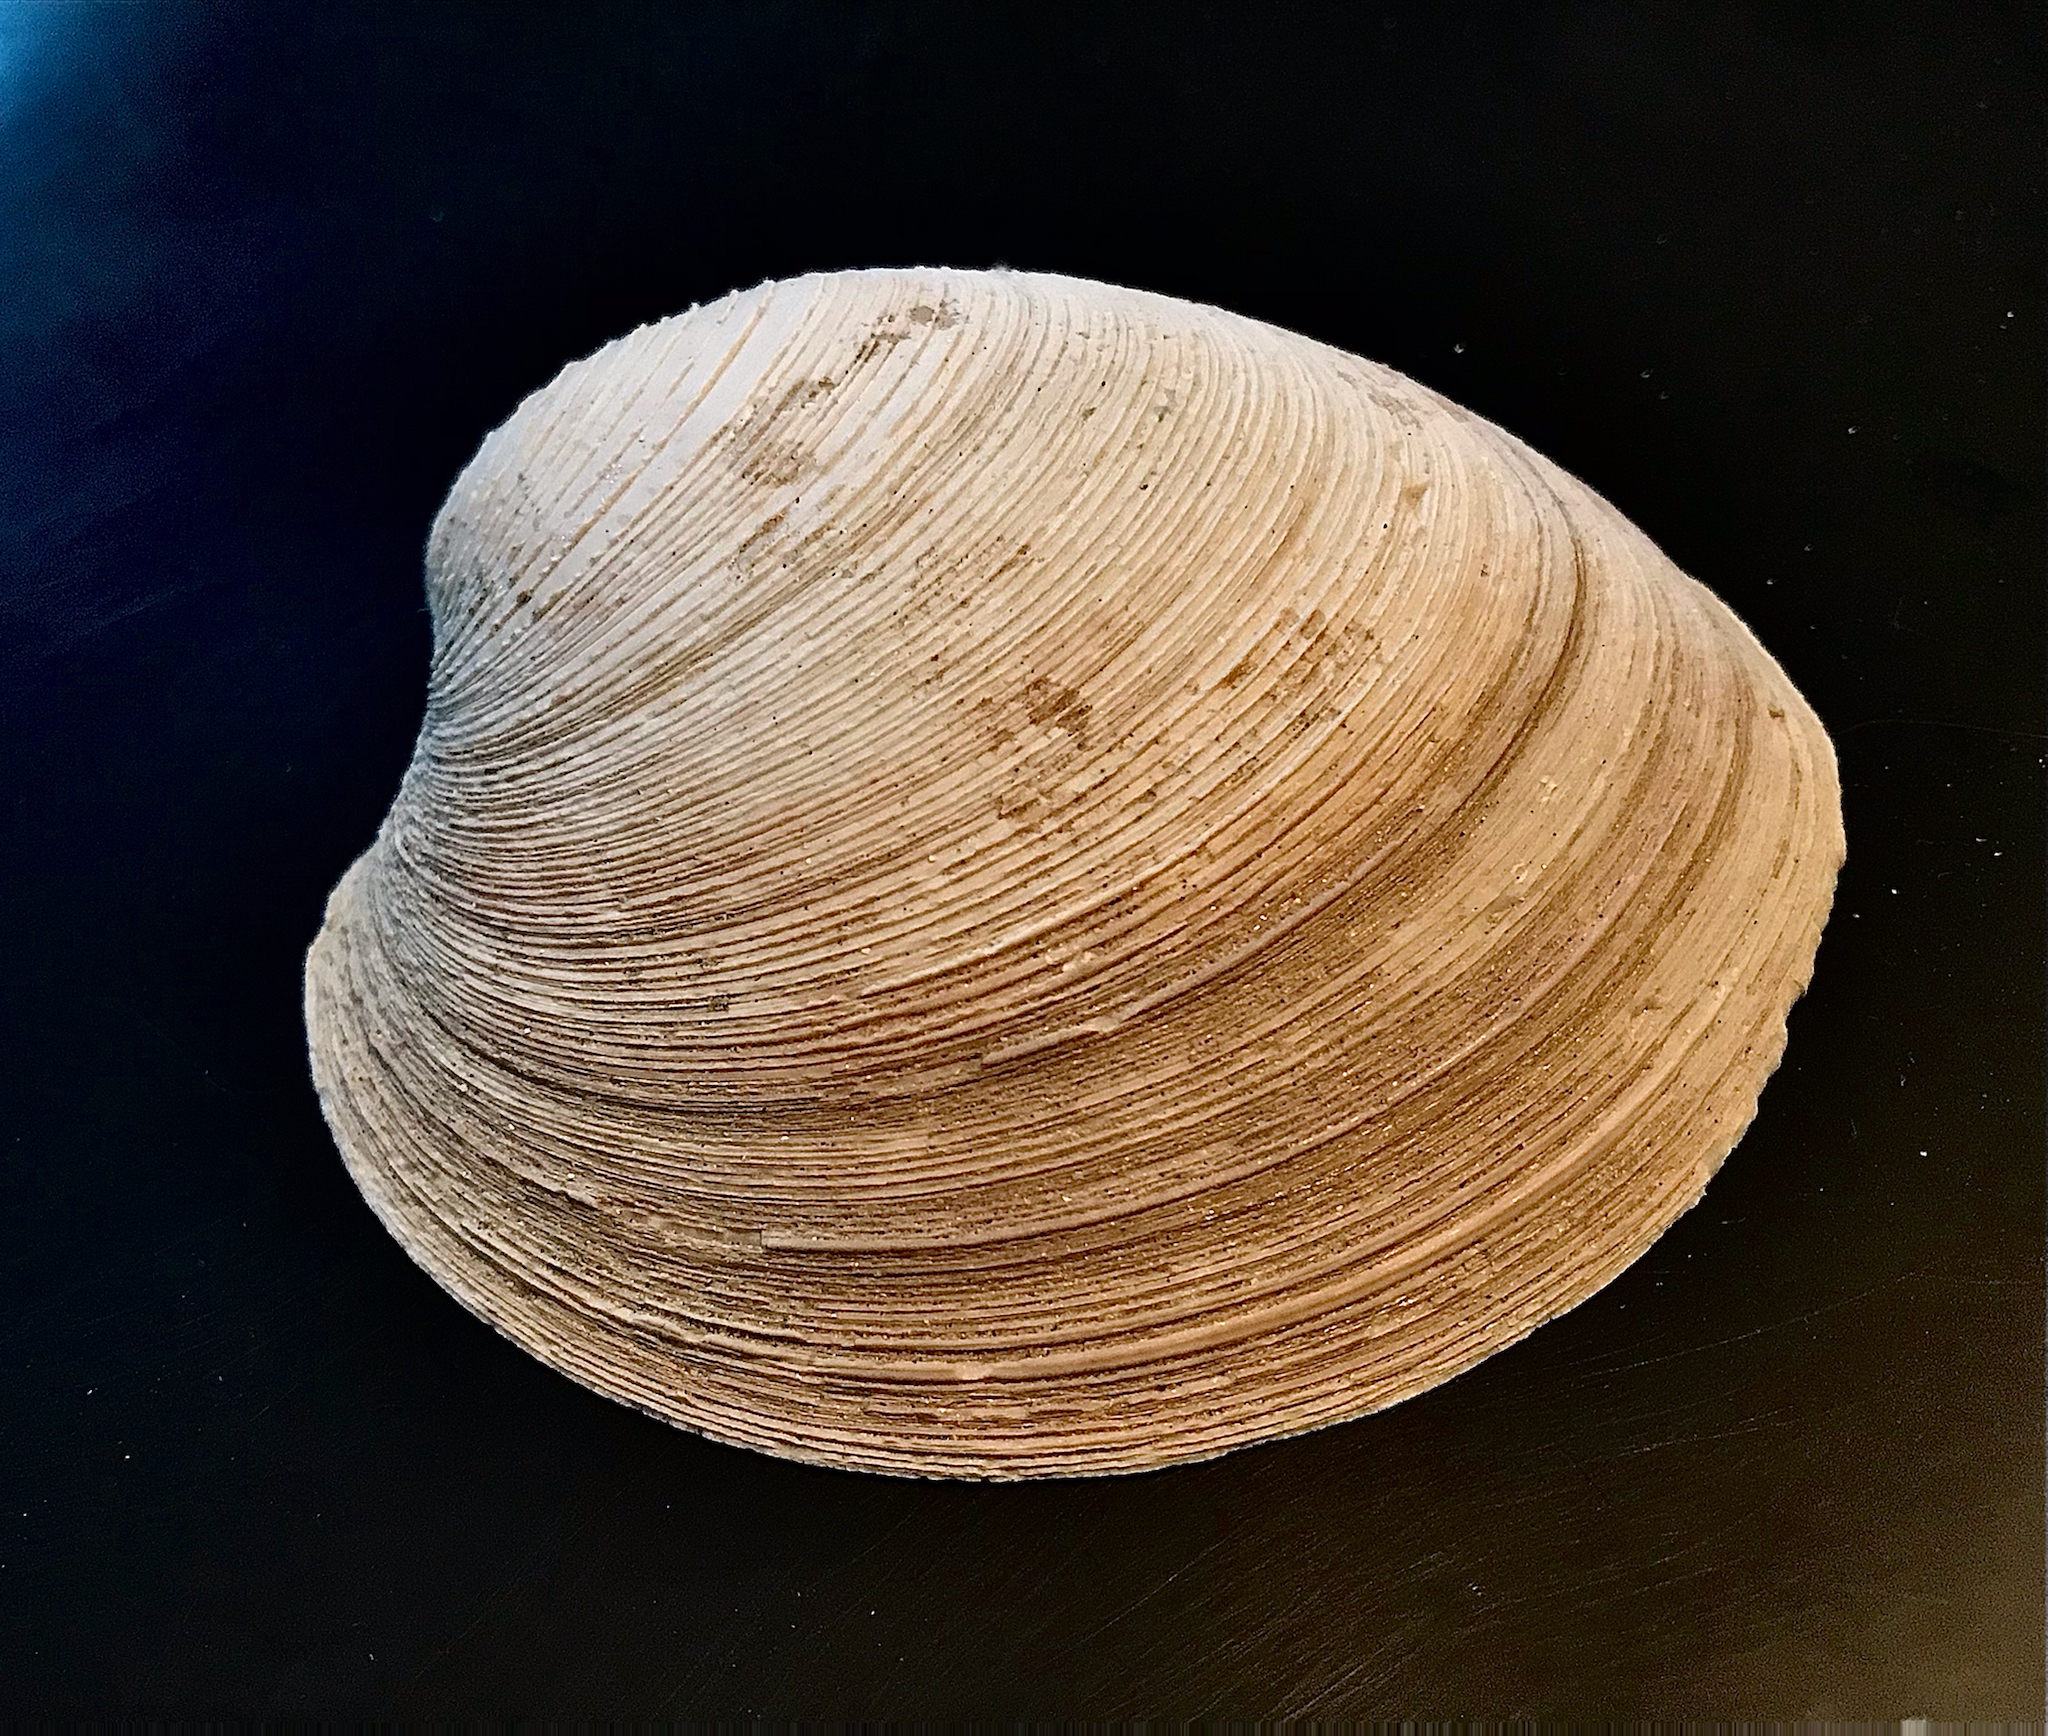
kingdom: Animalia
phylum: Mollusca
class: Bivalvia
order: Venerida
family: Veneridae
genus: Mercenaria
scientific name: Mercenaria campechiensis
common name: Südliche quahog-muschel
